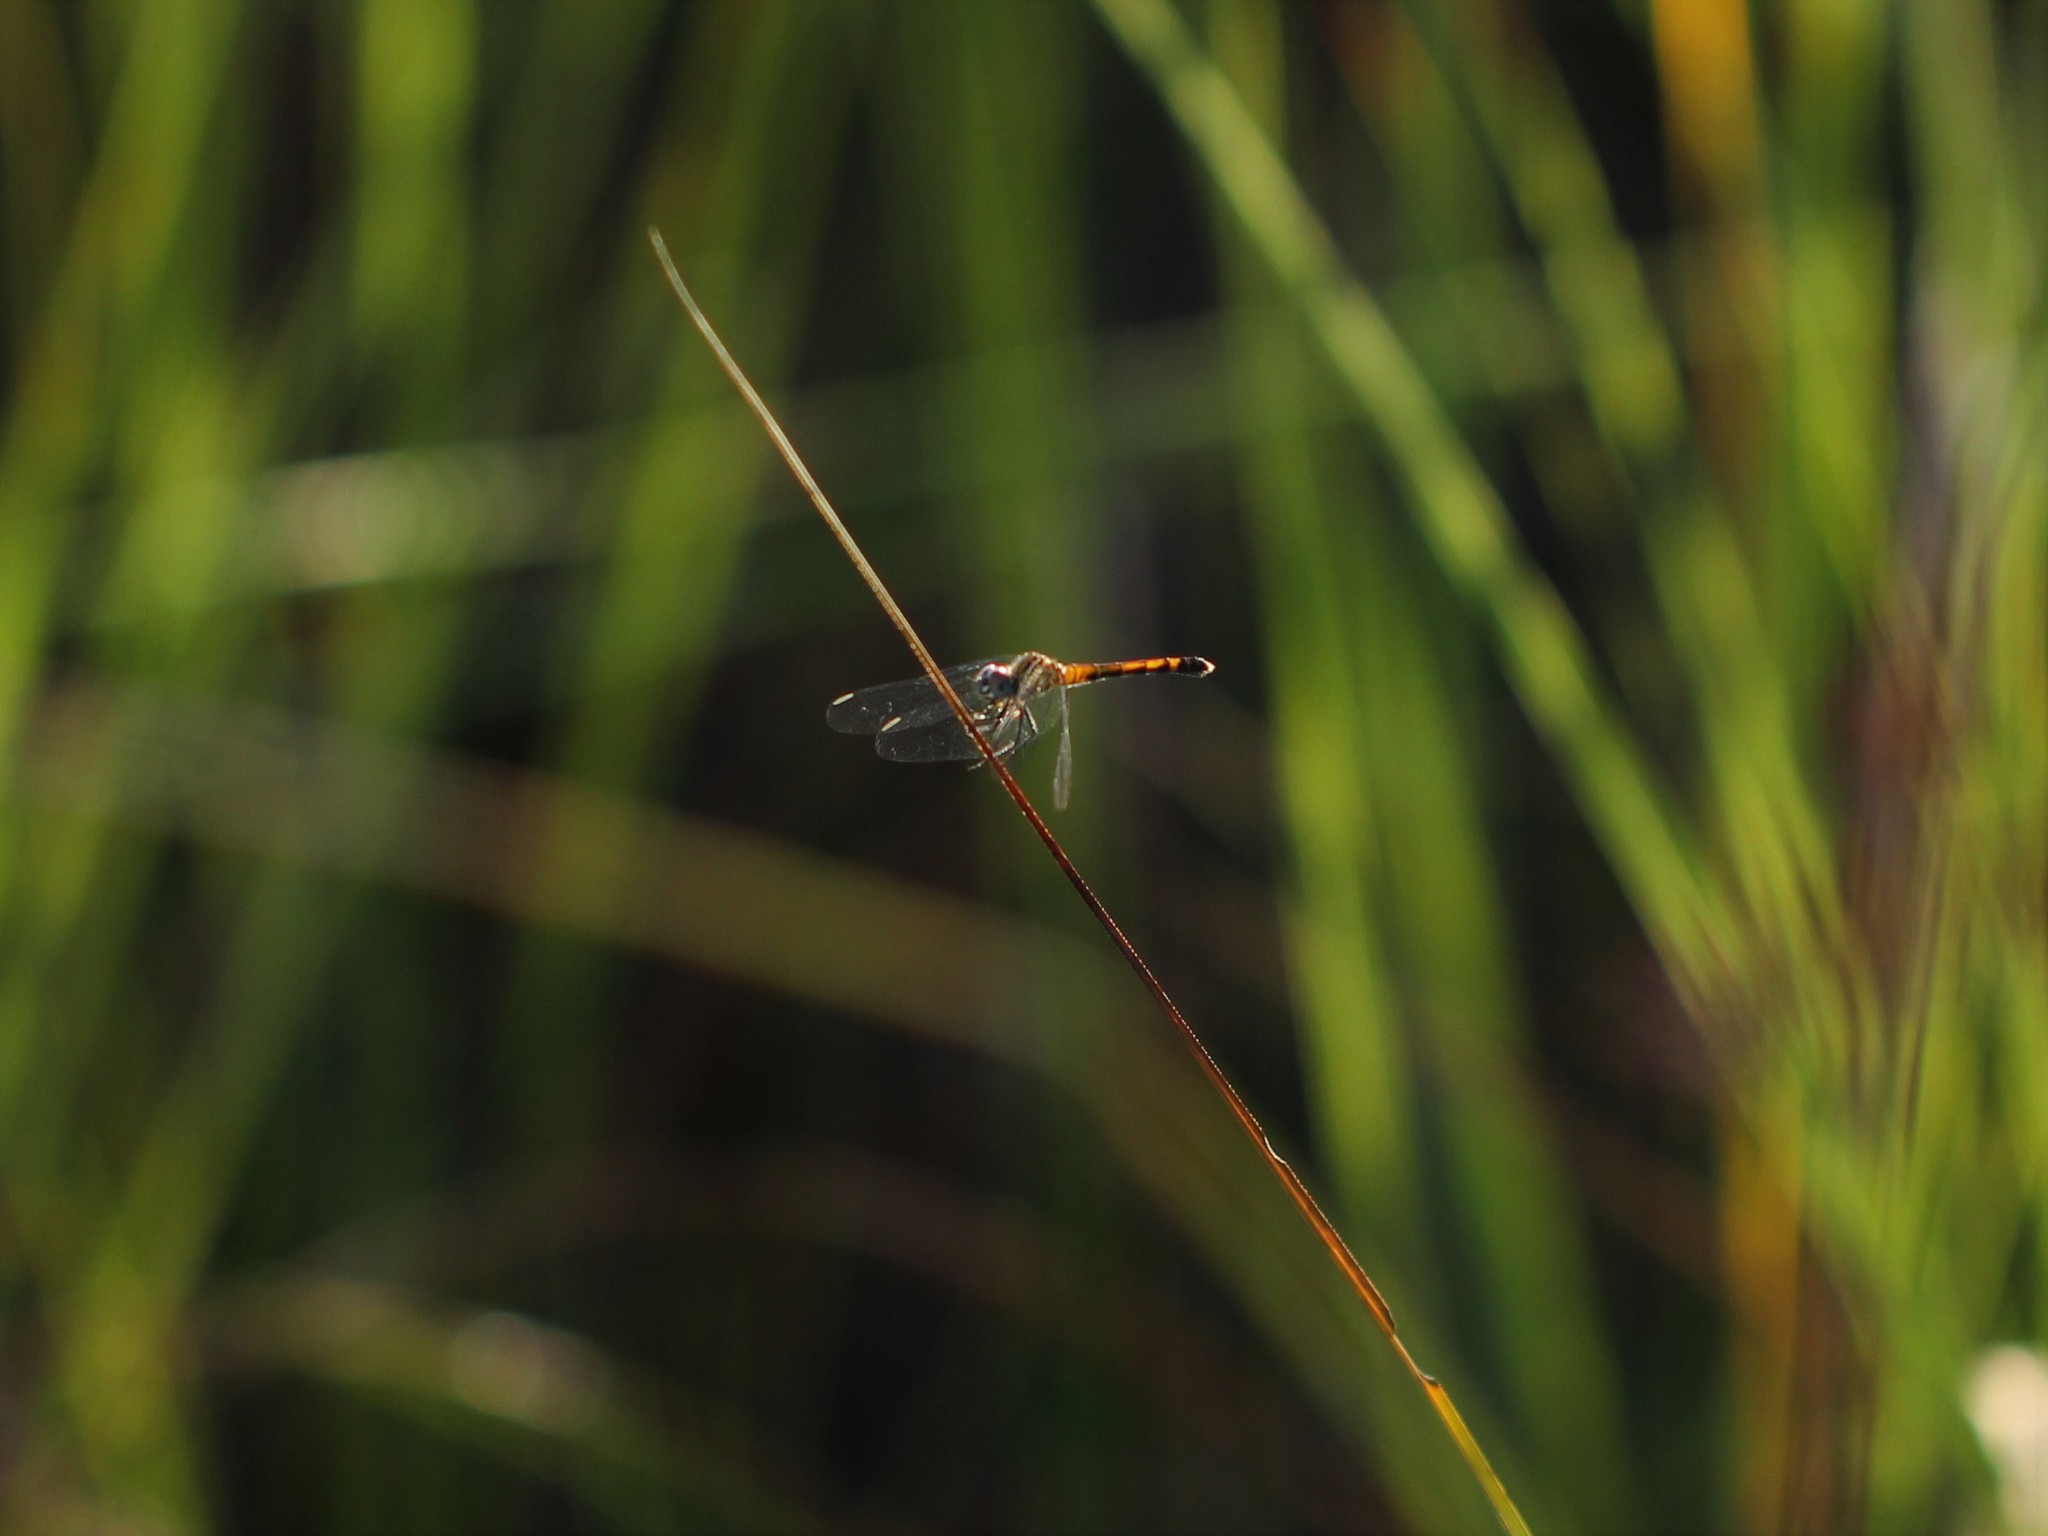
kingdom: Animalia
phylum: Arthropoda
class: Insecta
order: Odonata
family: Libellulidae
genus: Erythrodiplax
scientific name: Erythrodiplax berenice
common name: Seaside dragonlet
